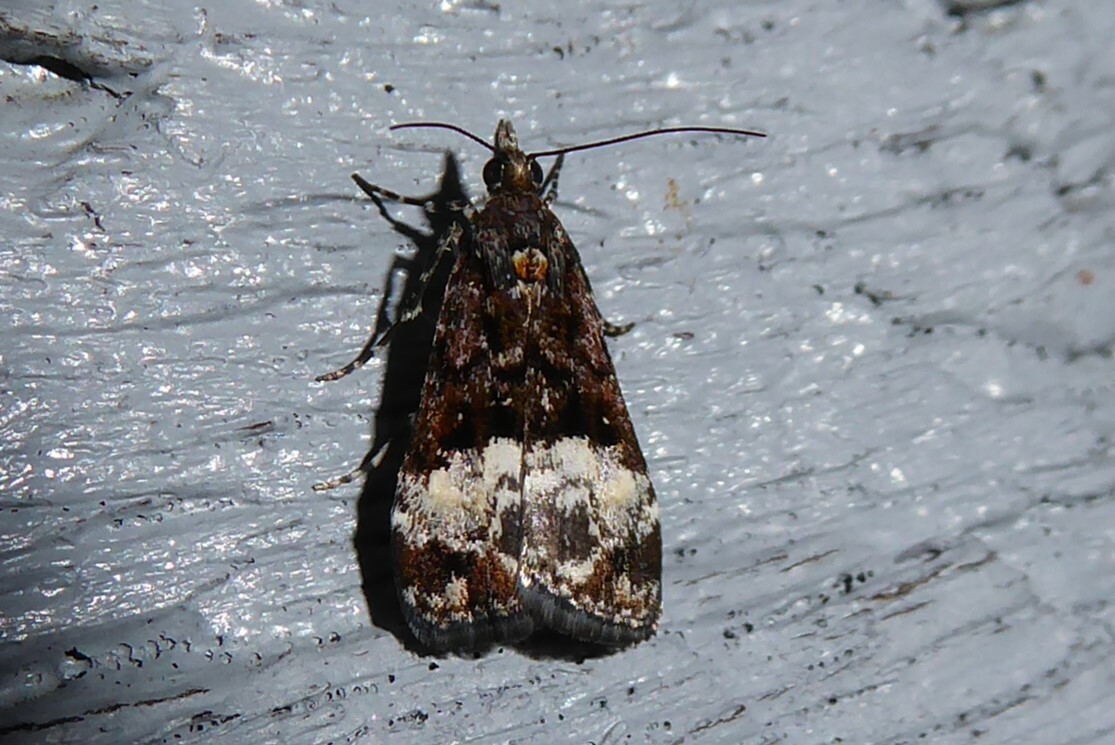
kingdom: Animalia
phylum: Arthropoda
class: Insecta
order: Lepidoptera
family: Crambidae
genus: Scoparia
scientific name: Scoparia minusculalis
